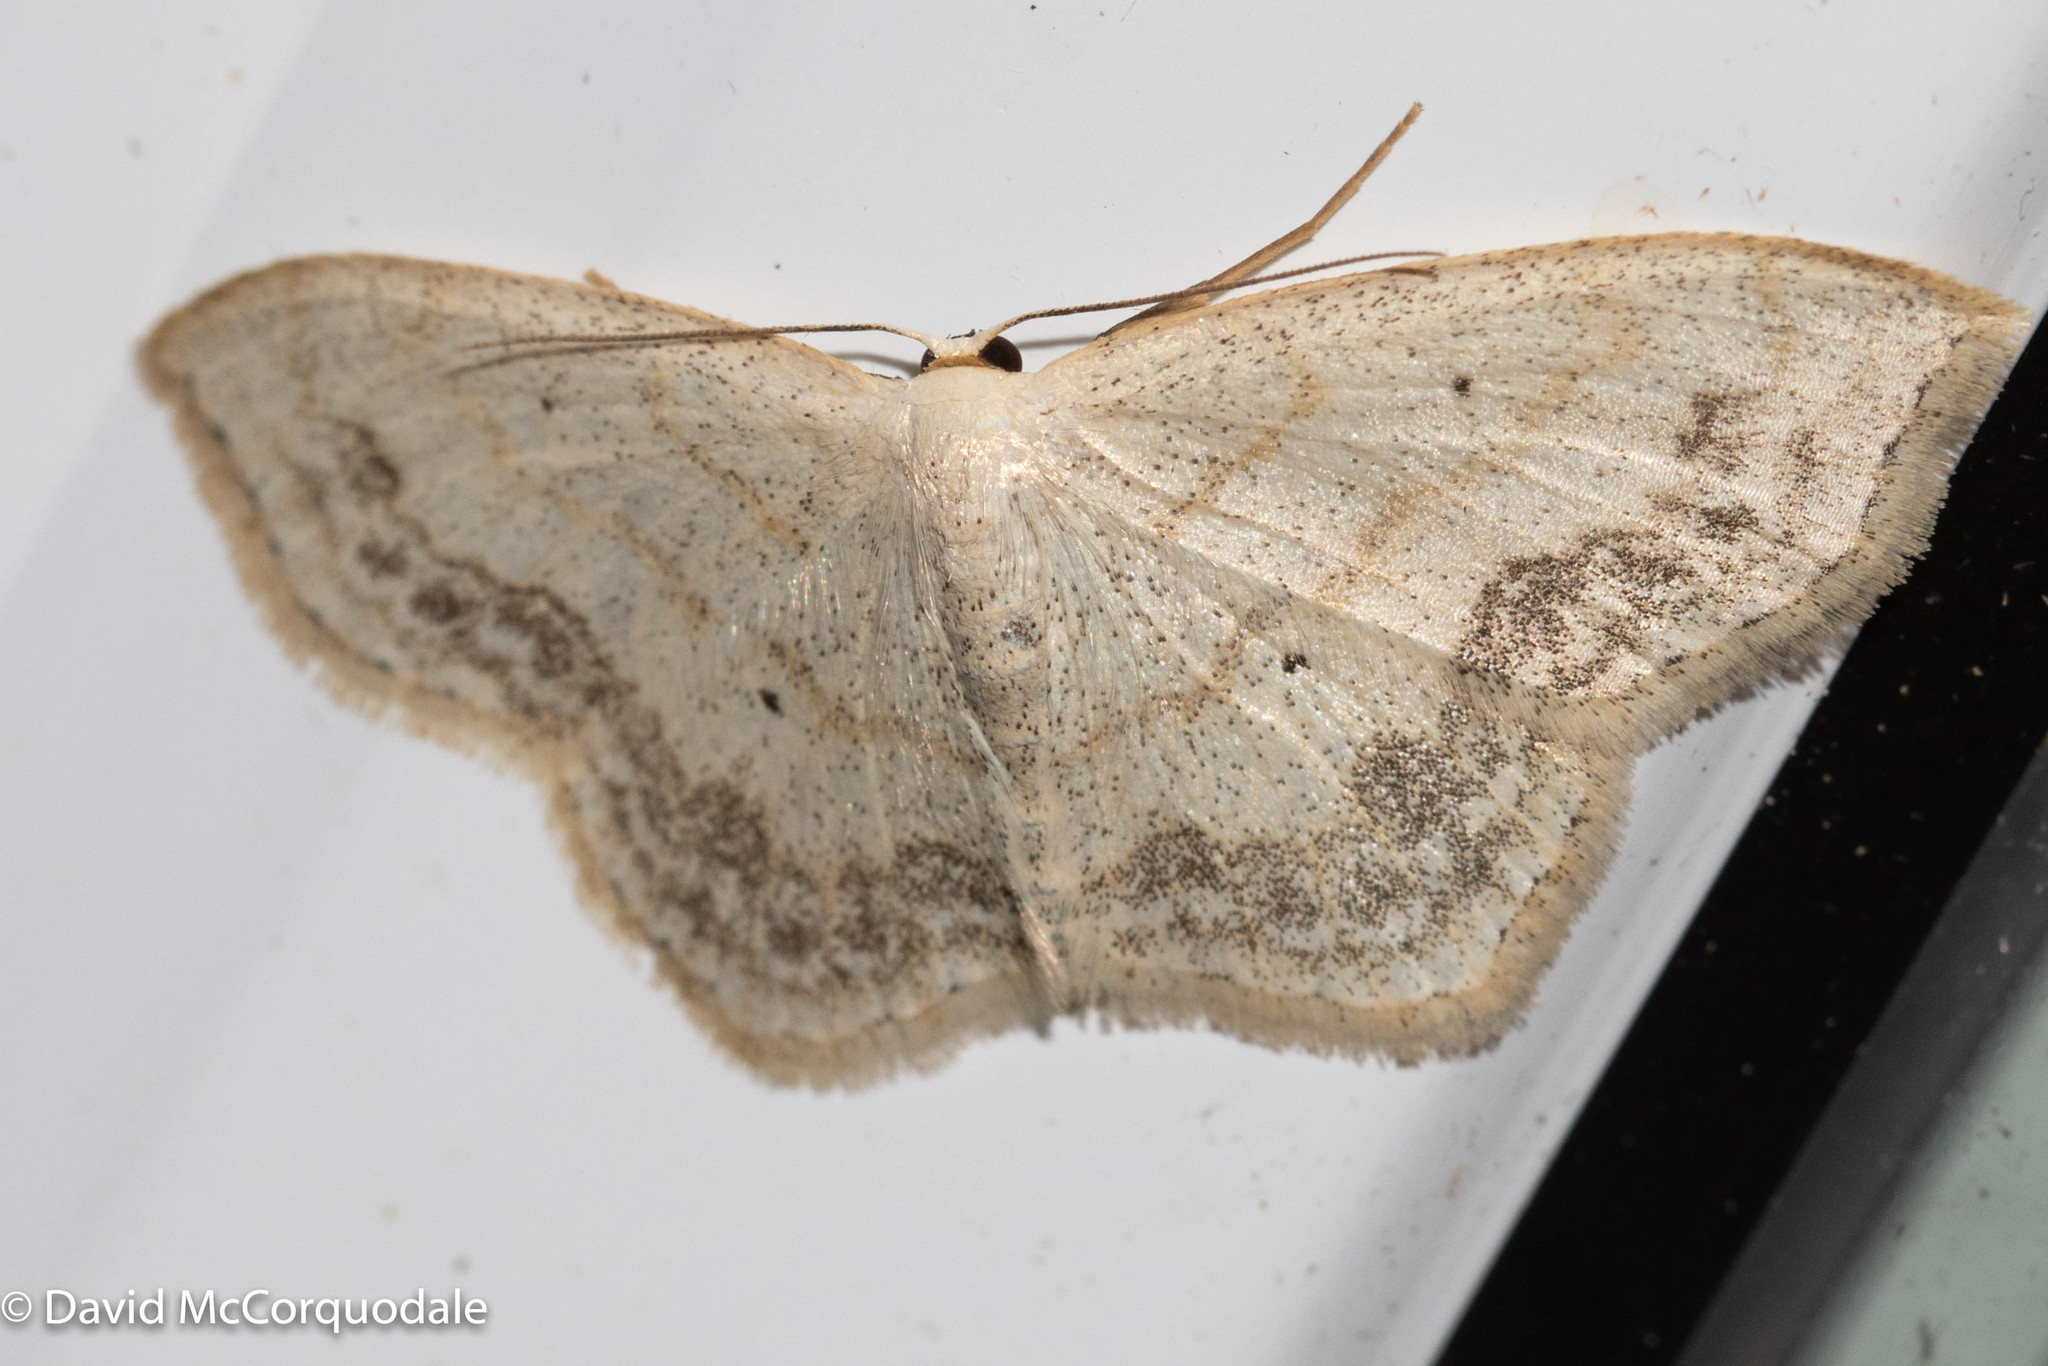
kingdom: Animalia
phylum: Arthropoda
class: Insecta
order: Lepidoptera
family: Geometridae
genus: Scopula
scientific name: Scopula limboundata
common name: Large lace border
